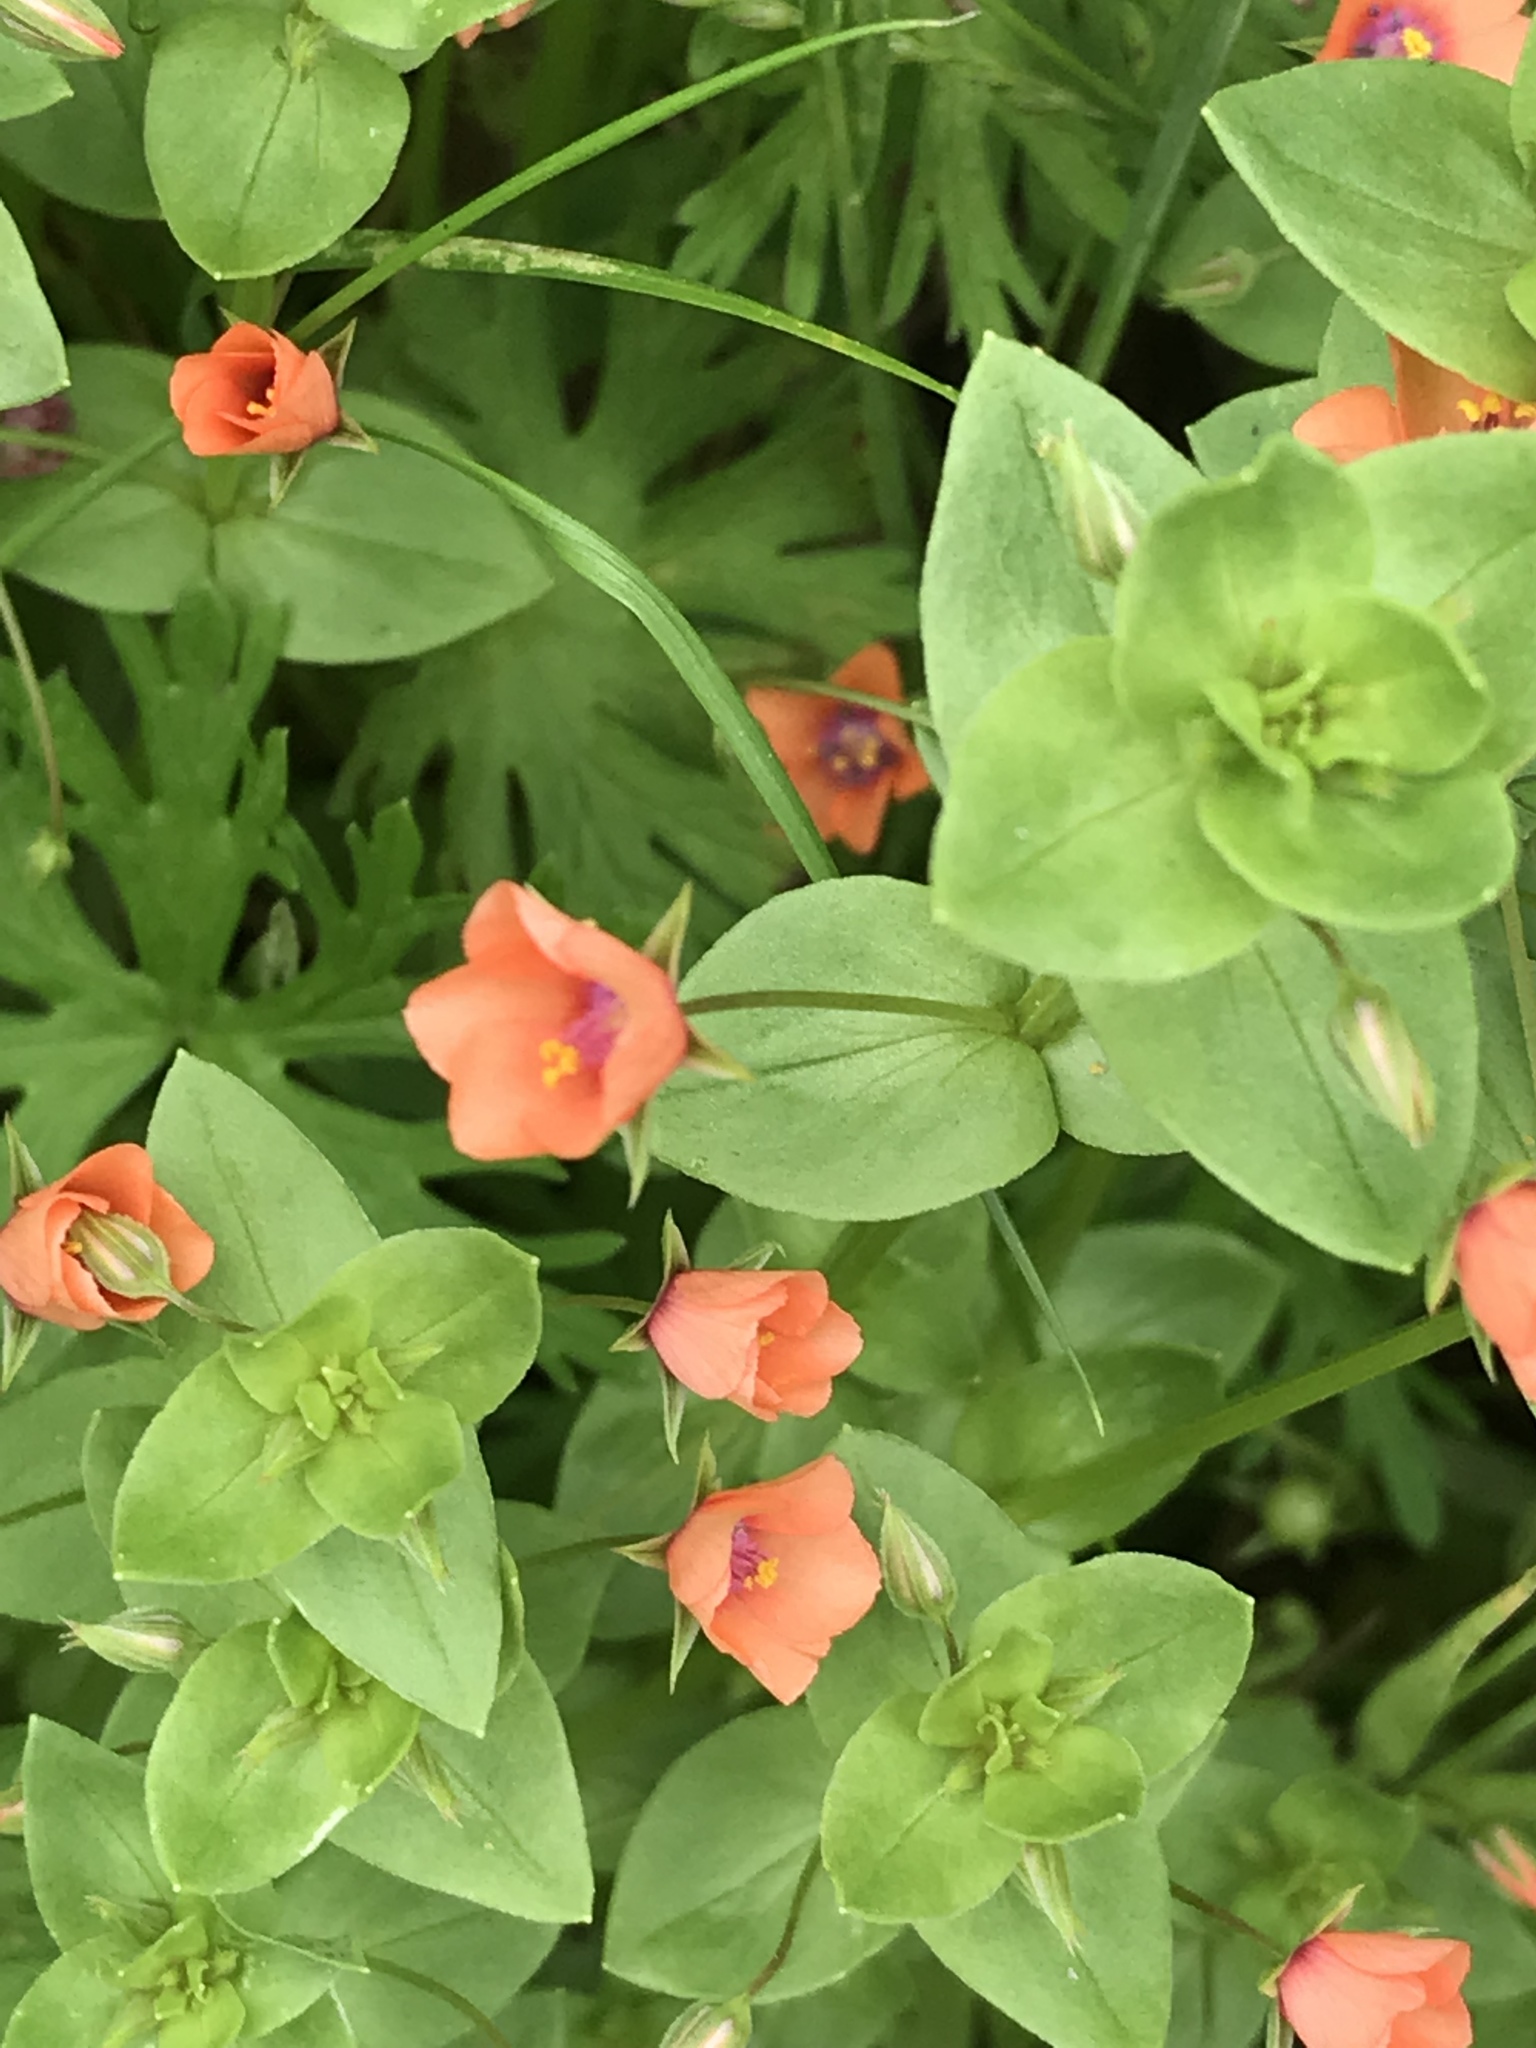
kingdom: Plantae
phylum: Tracheophyta
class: Magnoliopsida
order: Ericales
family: Primulaceae
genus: Lysimachia
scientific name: Lysimachia arvensis
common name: Scarlet pimpernel
